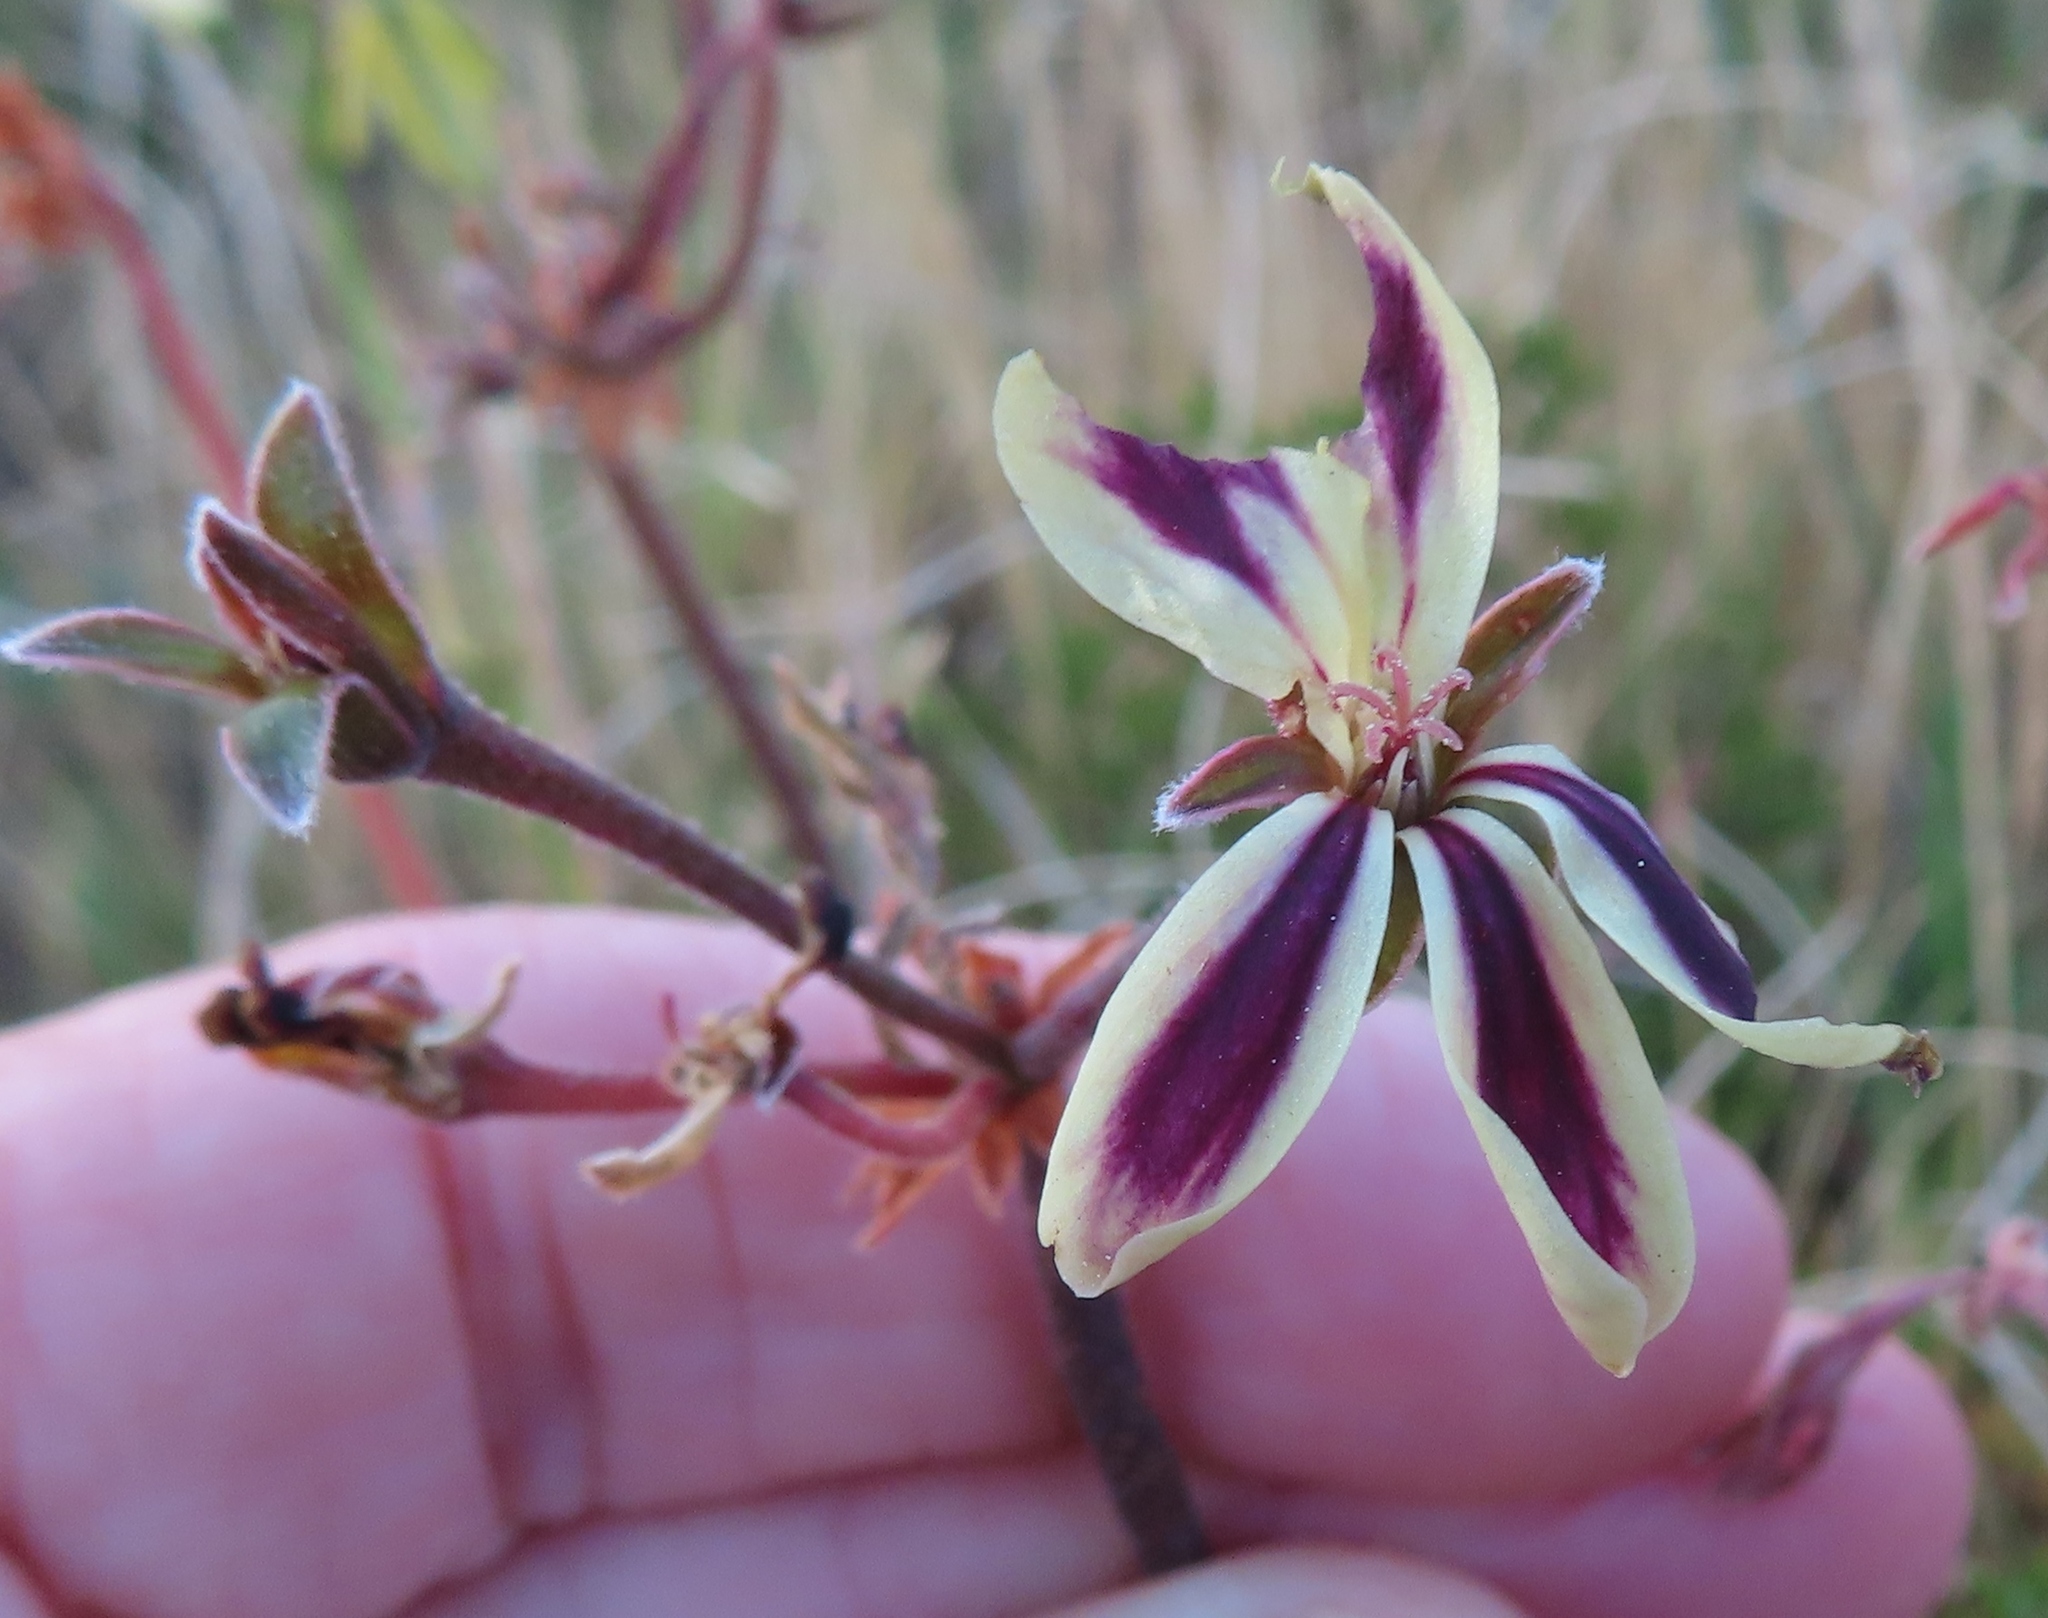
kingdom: Plantae
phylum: Tracheophyta
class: Magnoliopsida
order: Geraniales
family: Geraniaceae
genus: Pelargonium
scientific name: Pelargonium triste
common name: Night-scent pelargonium
